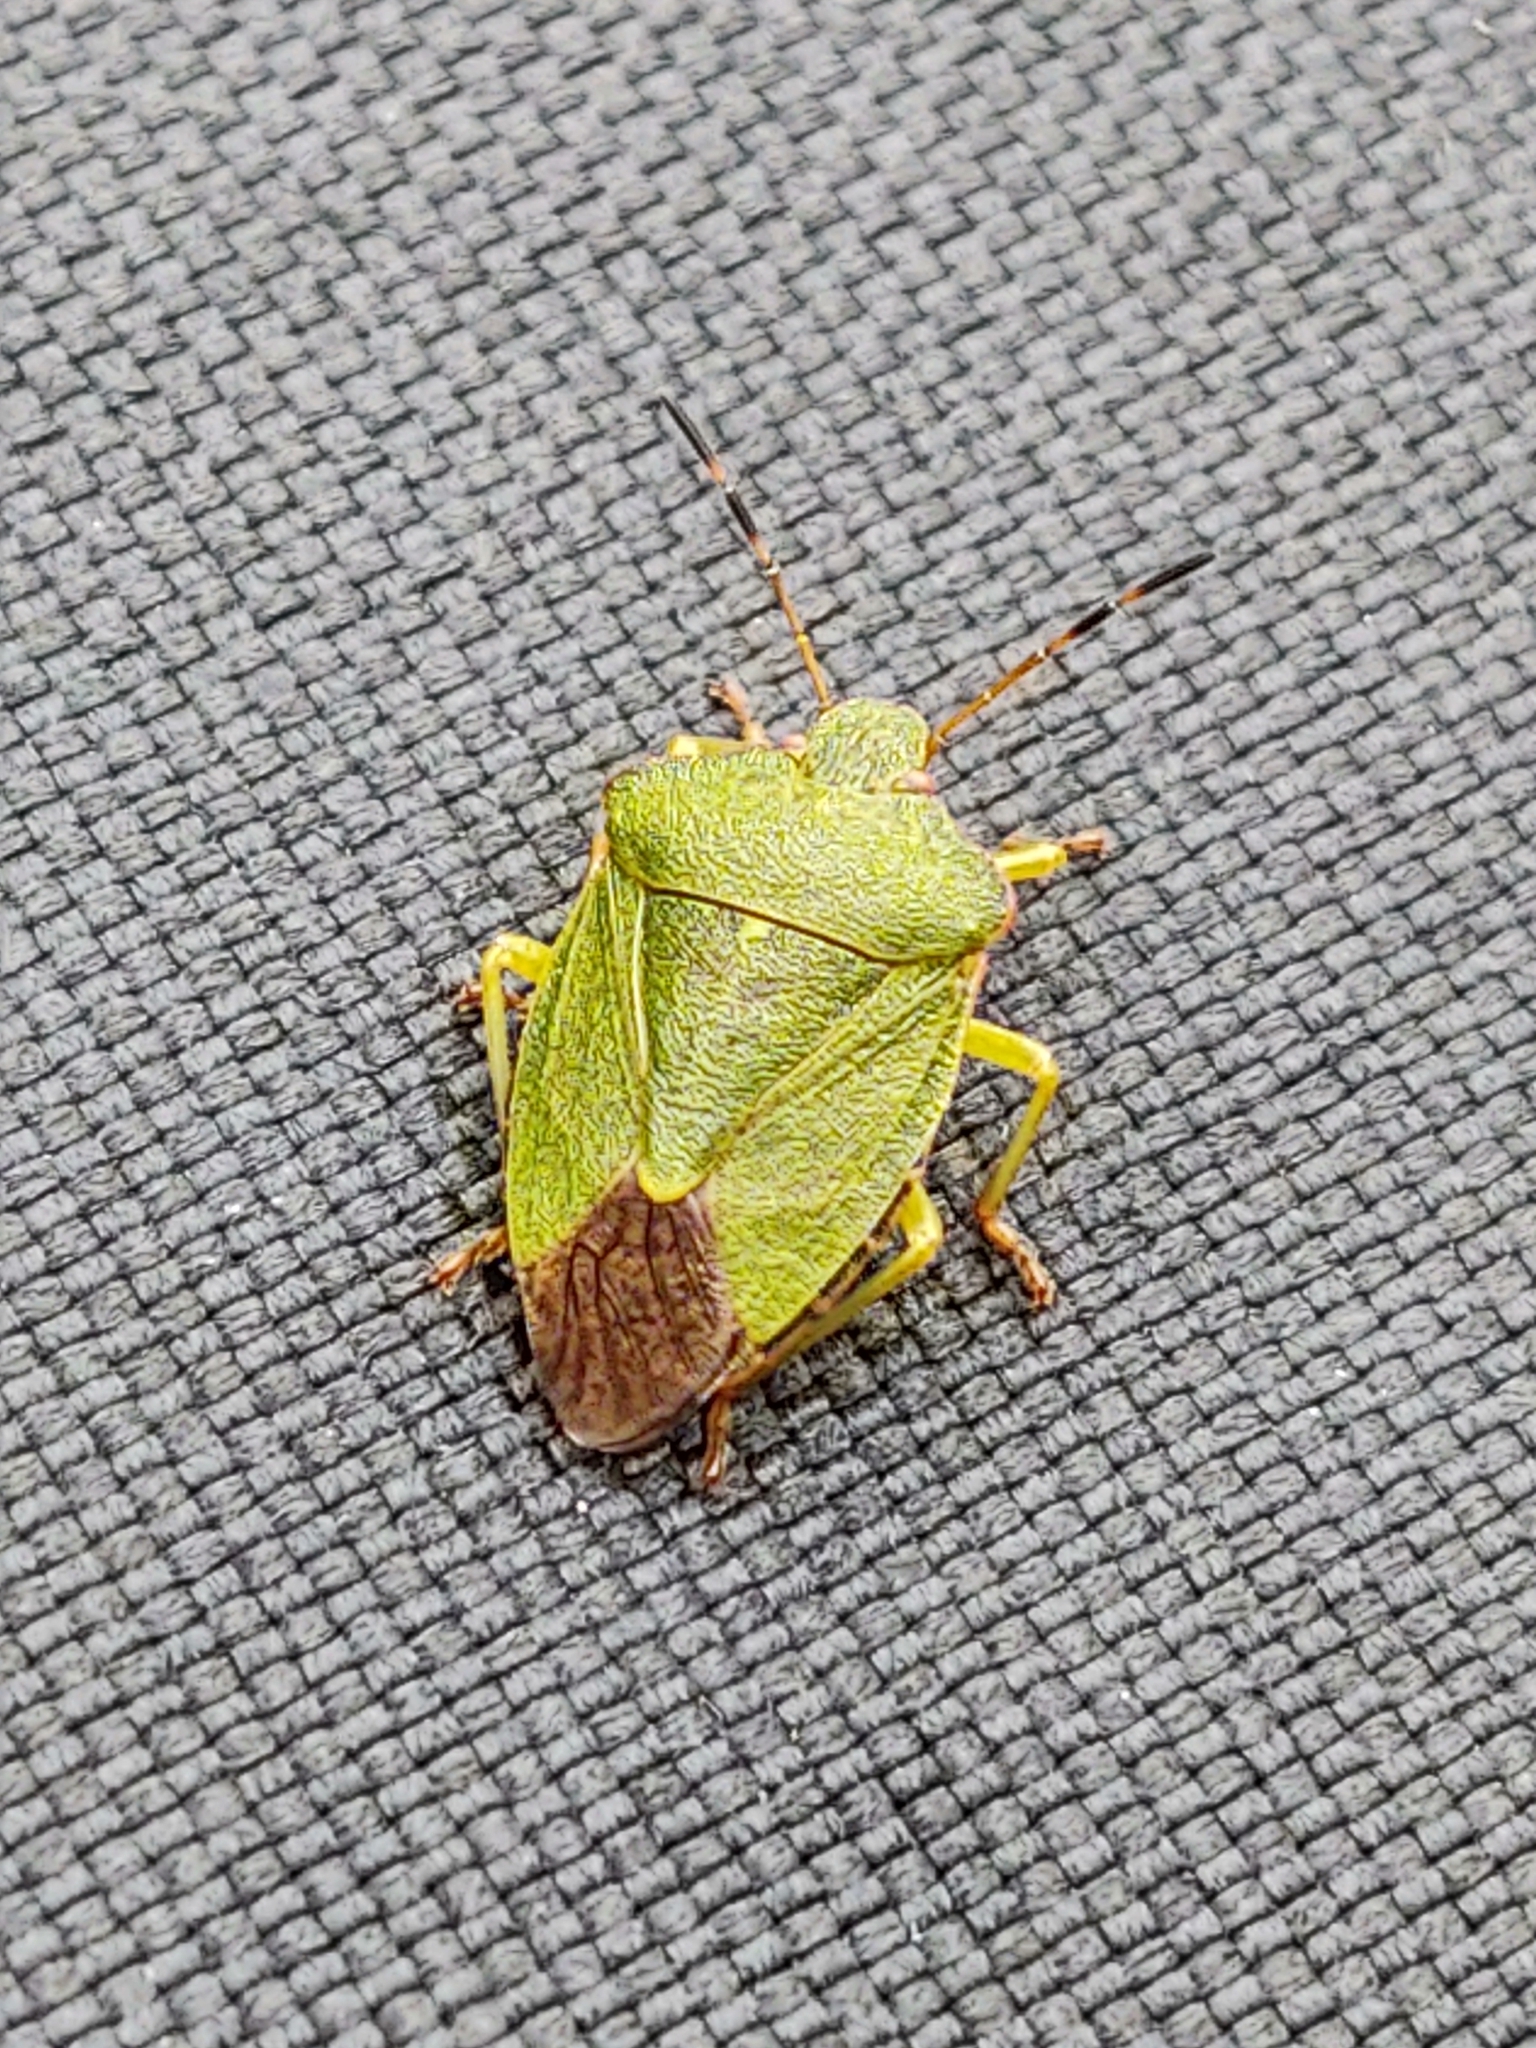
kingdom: Animalia
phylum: Arthropoda
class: Insecta
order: Hemiptera
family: Pentatomidae
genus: Palomena
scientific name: Palomena prasina
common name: Green shieldbug
